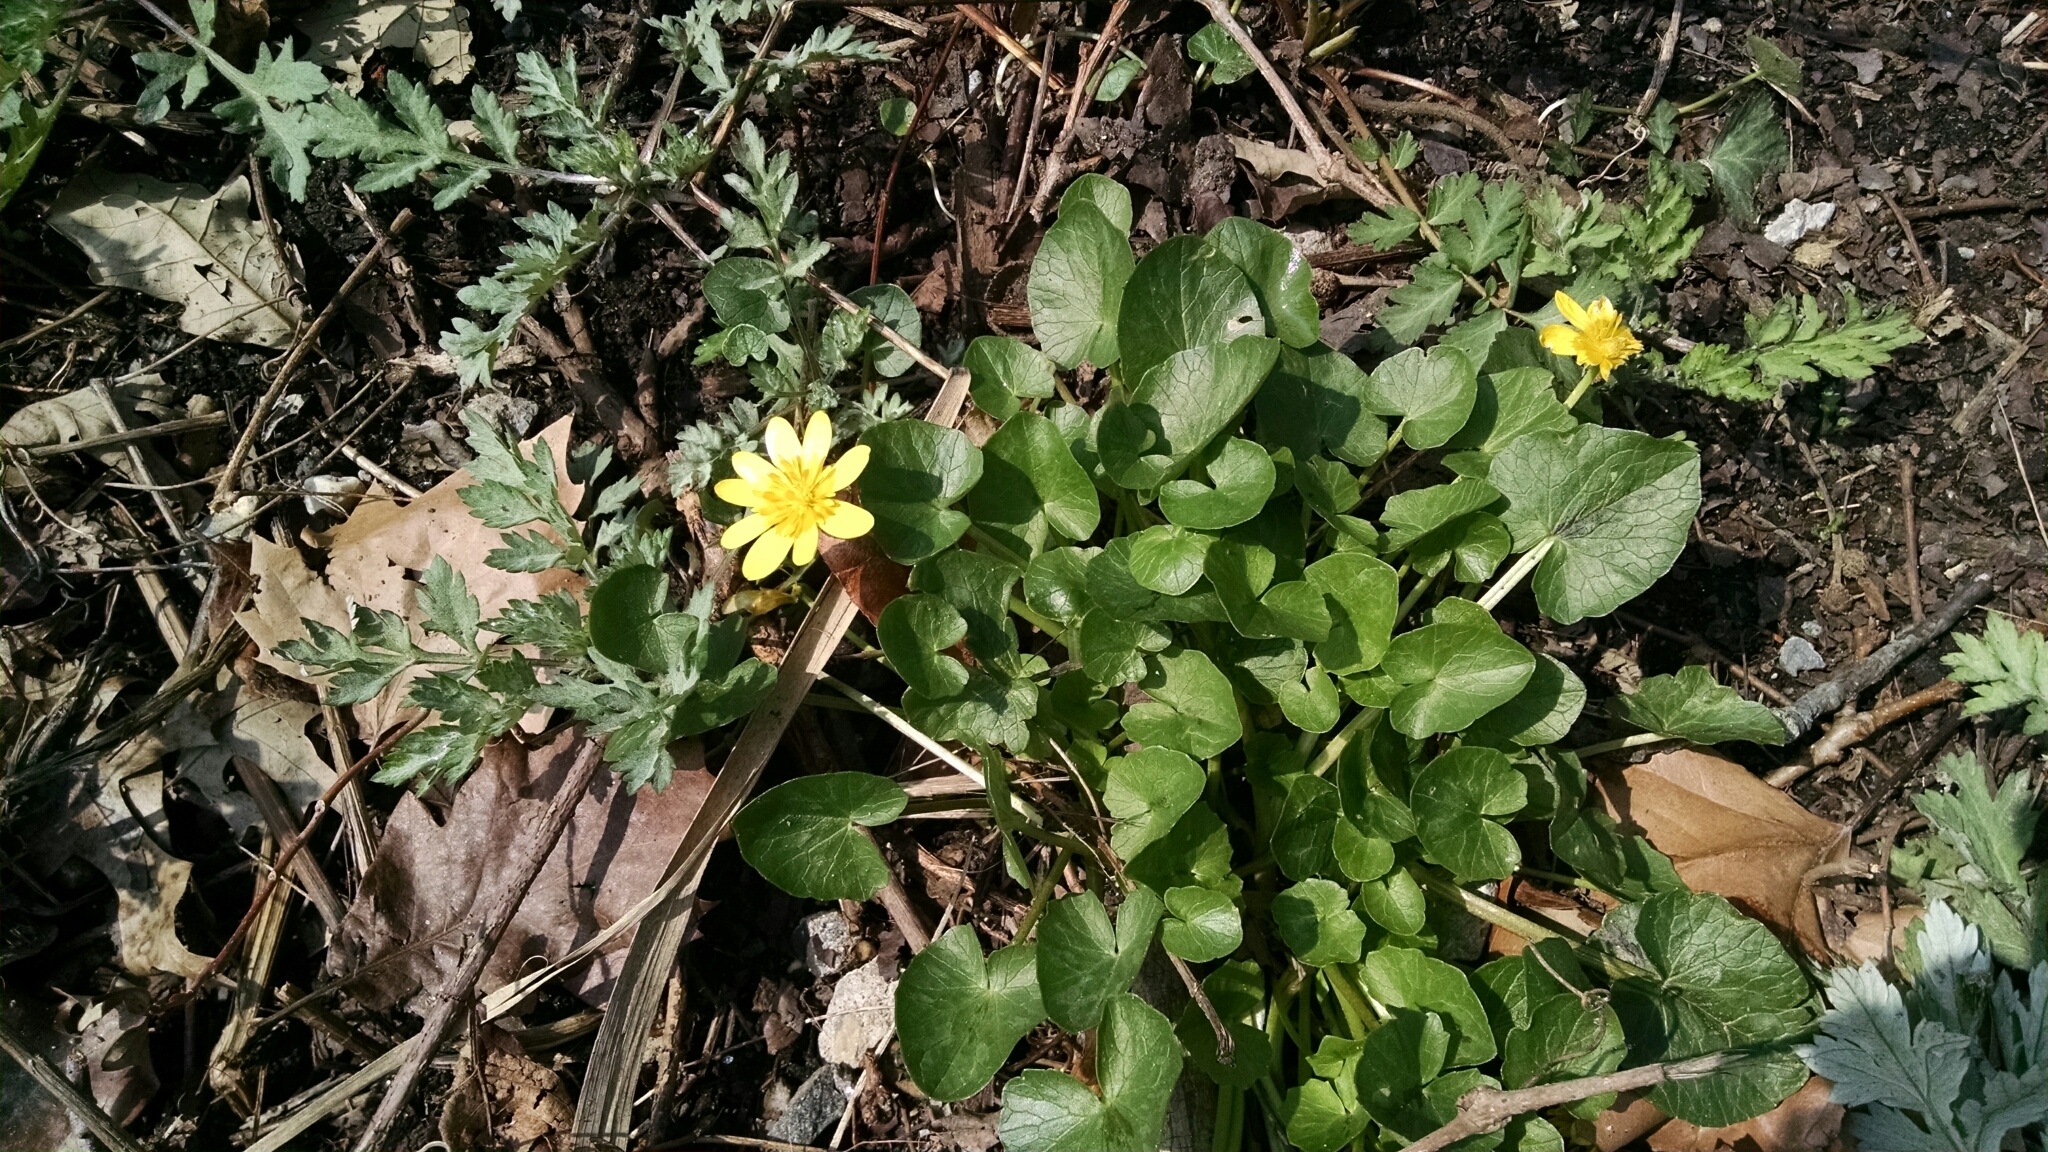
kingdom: Plantae
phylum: Tracheophyta
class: Magnoliopsida
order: Ranunculales
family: Ranunculaceae
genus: Ficaria
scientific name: Ficaria verna
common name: Lesser celandine
